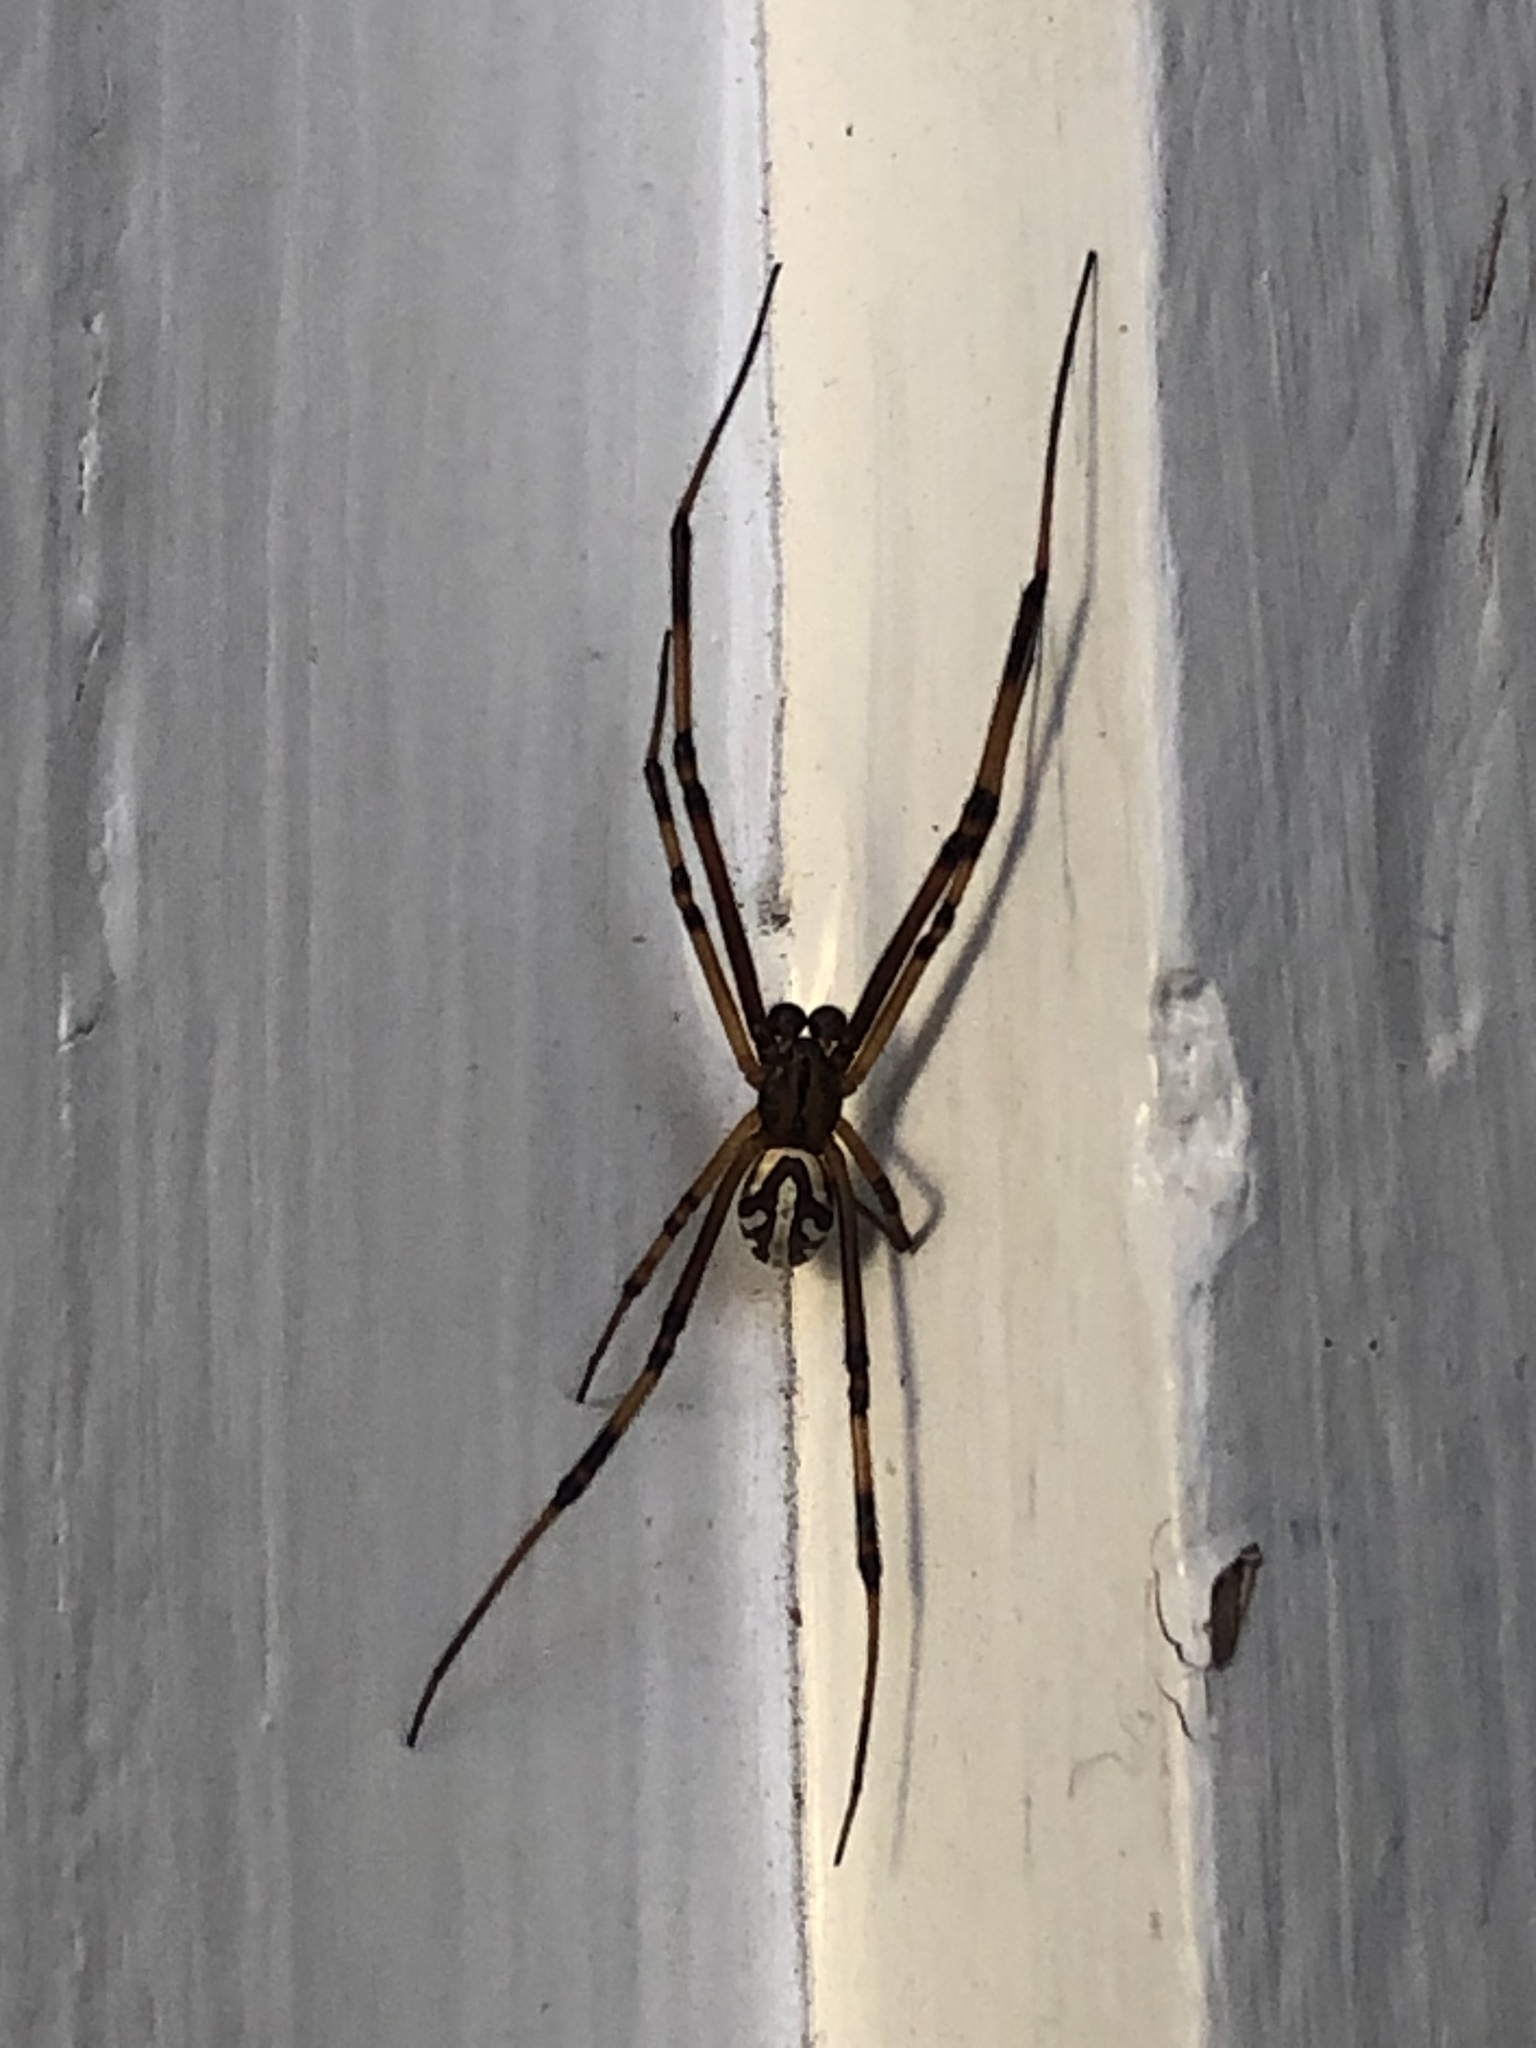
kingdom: Animalia
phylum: Arthropoda
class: Arachnida
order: Araneae
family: Theridiidae
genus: Latrodectus
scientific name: Latrodectus hesperus
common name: Western black widow
